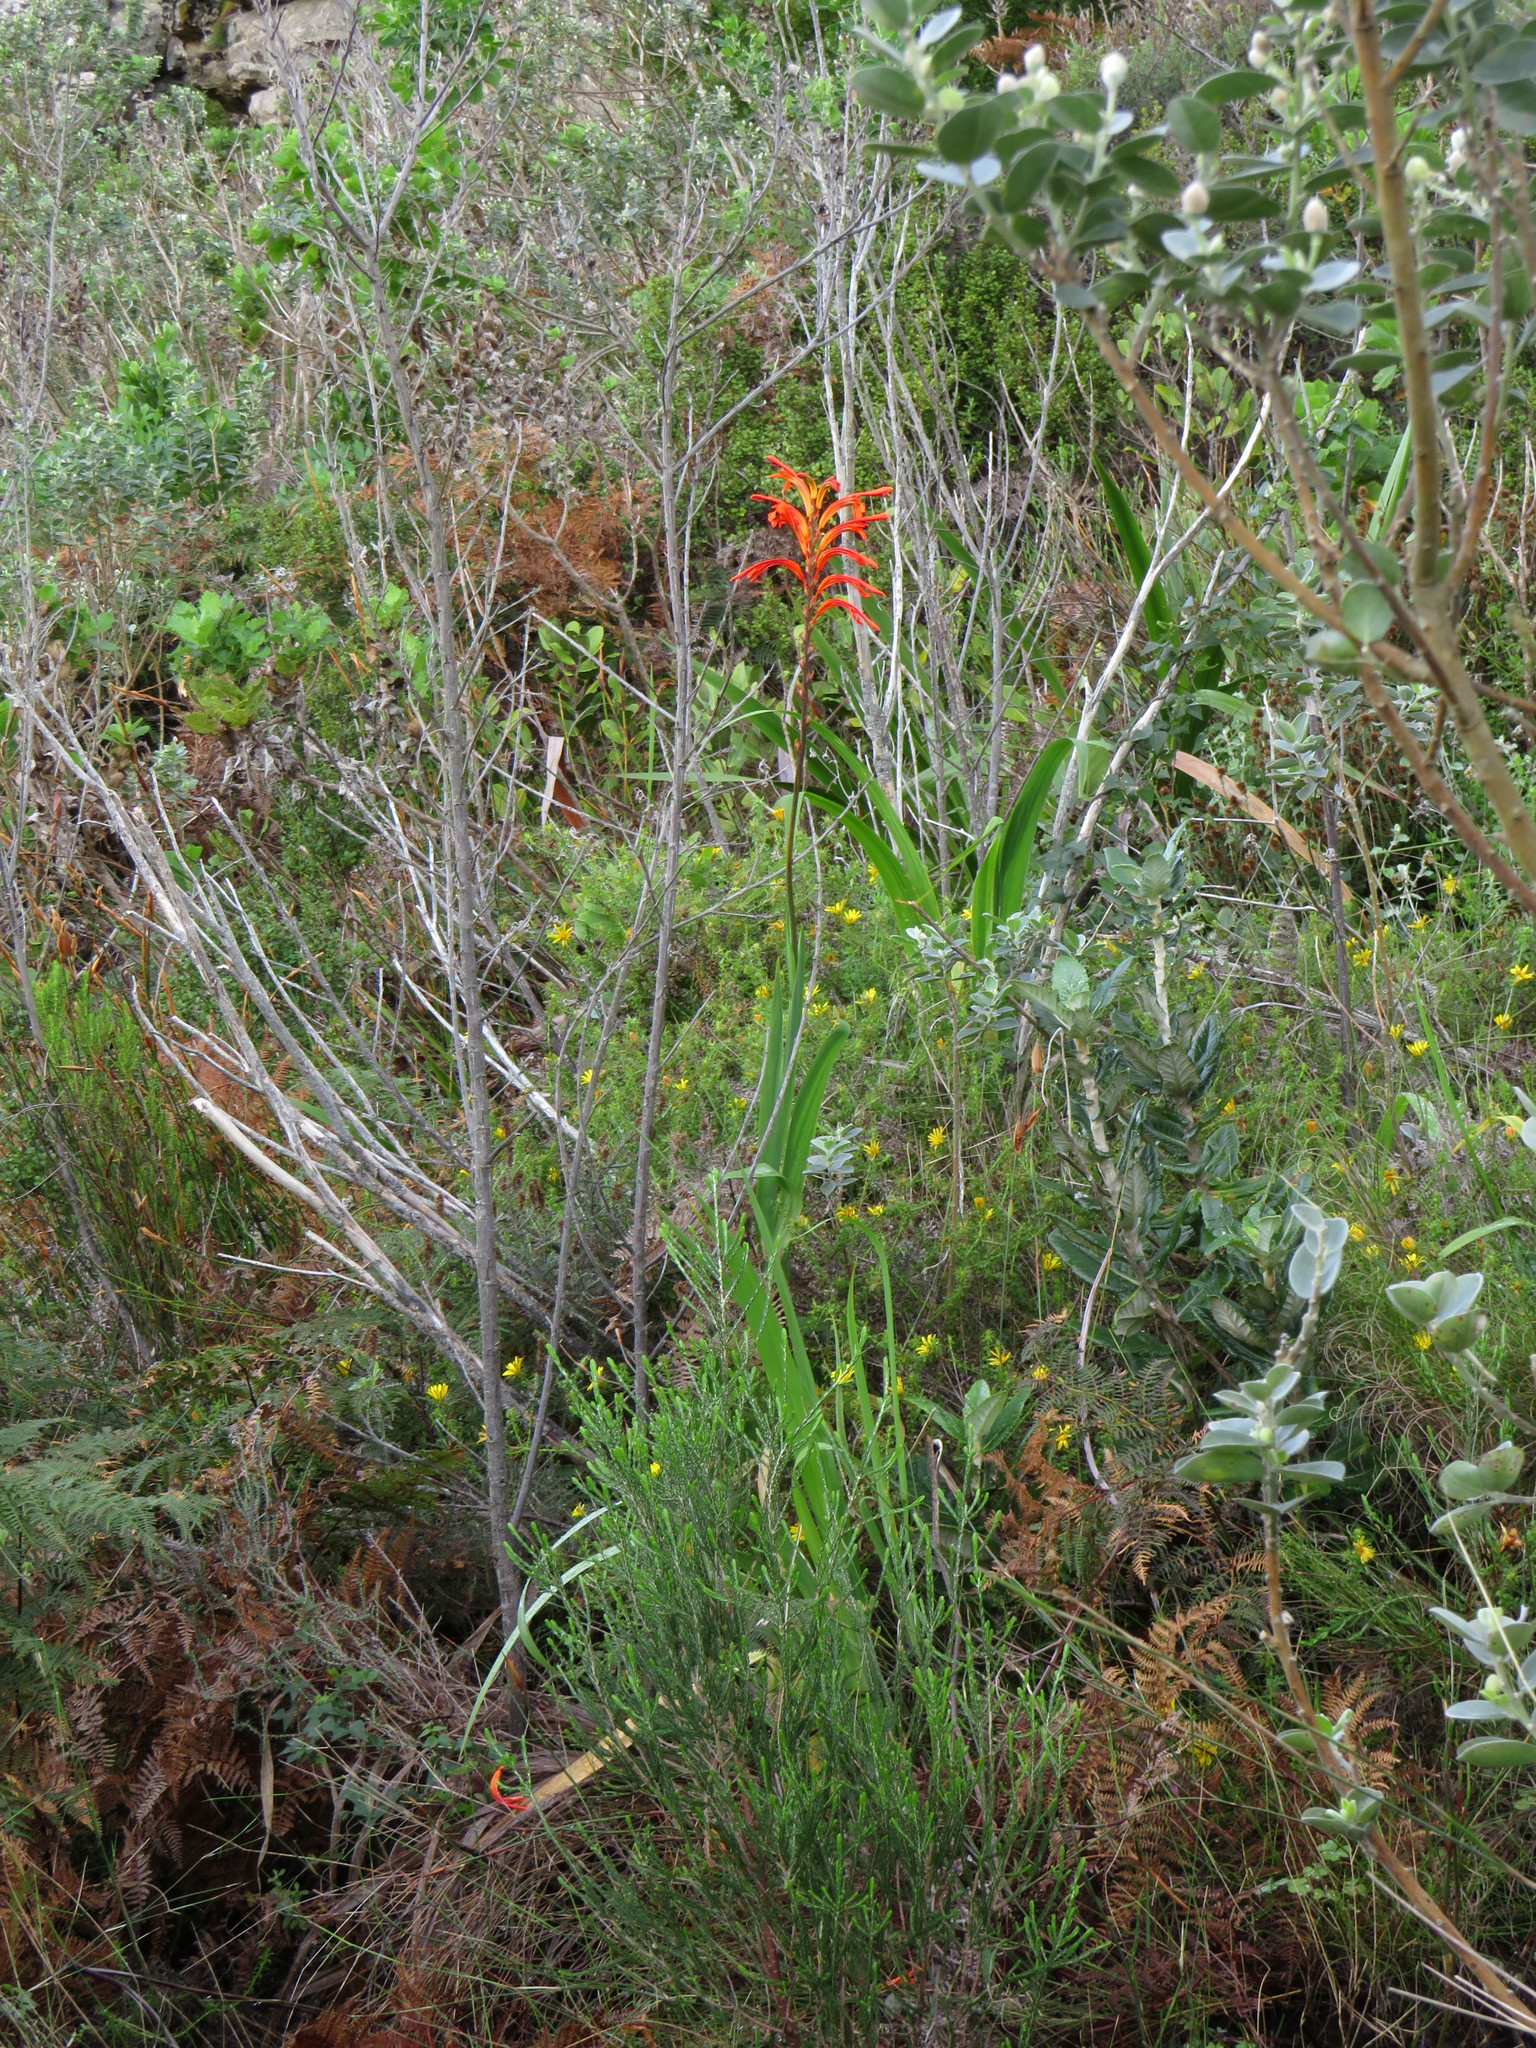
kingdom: Plantae
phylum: Tracheophyta
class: Liliopsida
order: Asparagales
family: Iridaceae
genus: Chasmanthe
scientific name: Chasmanthe floribunda
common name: African cornflag
